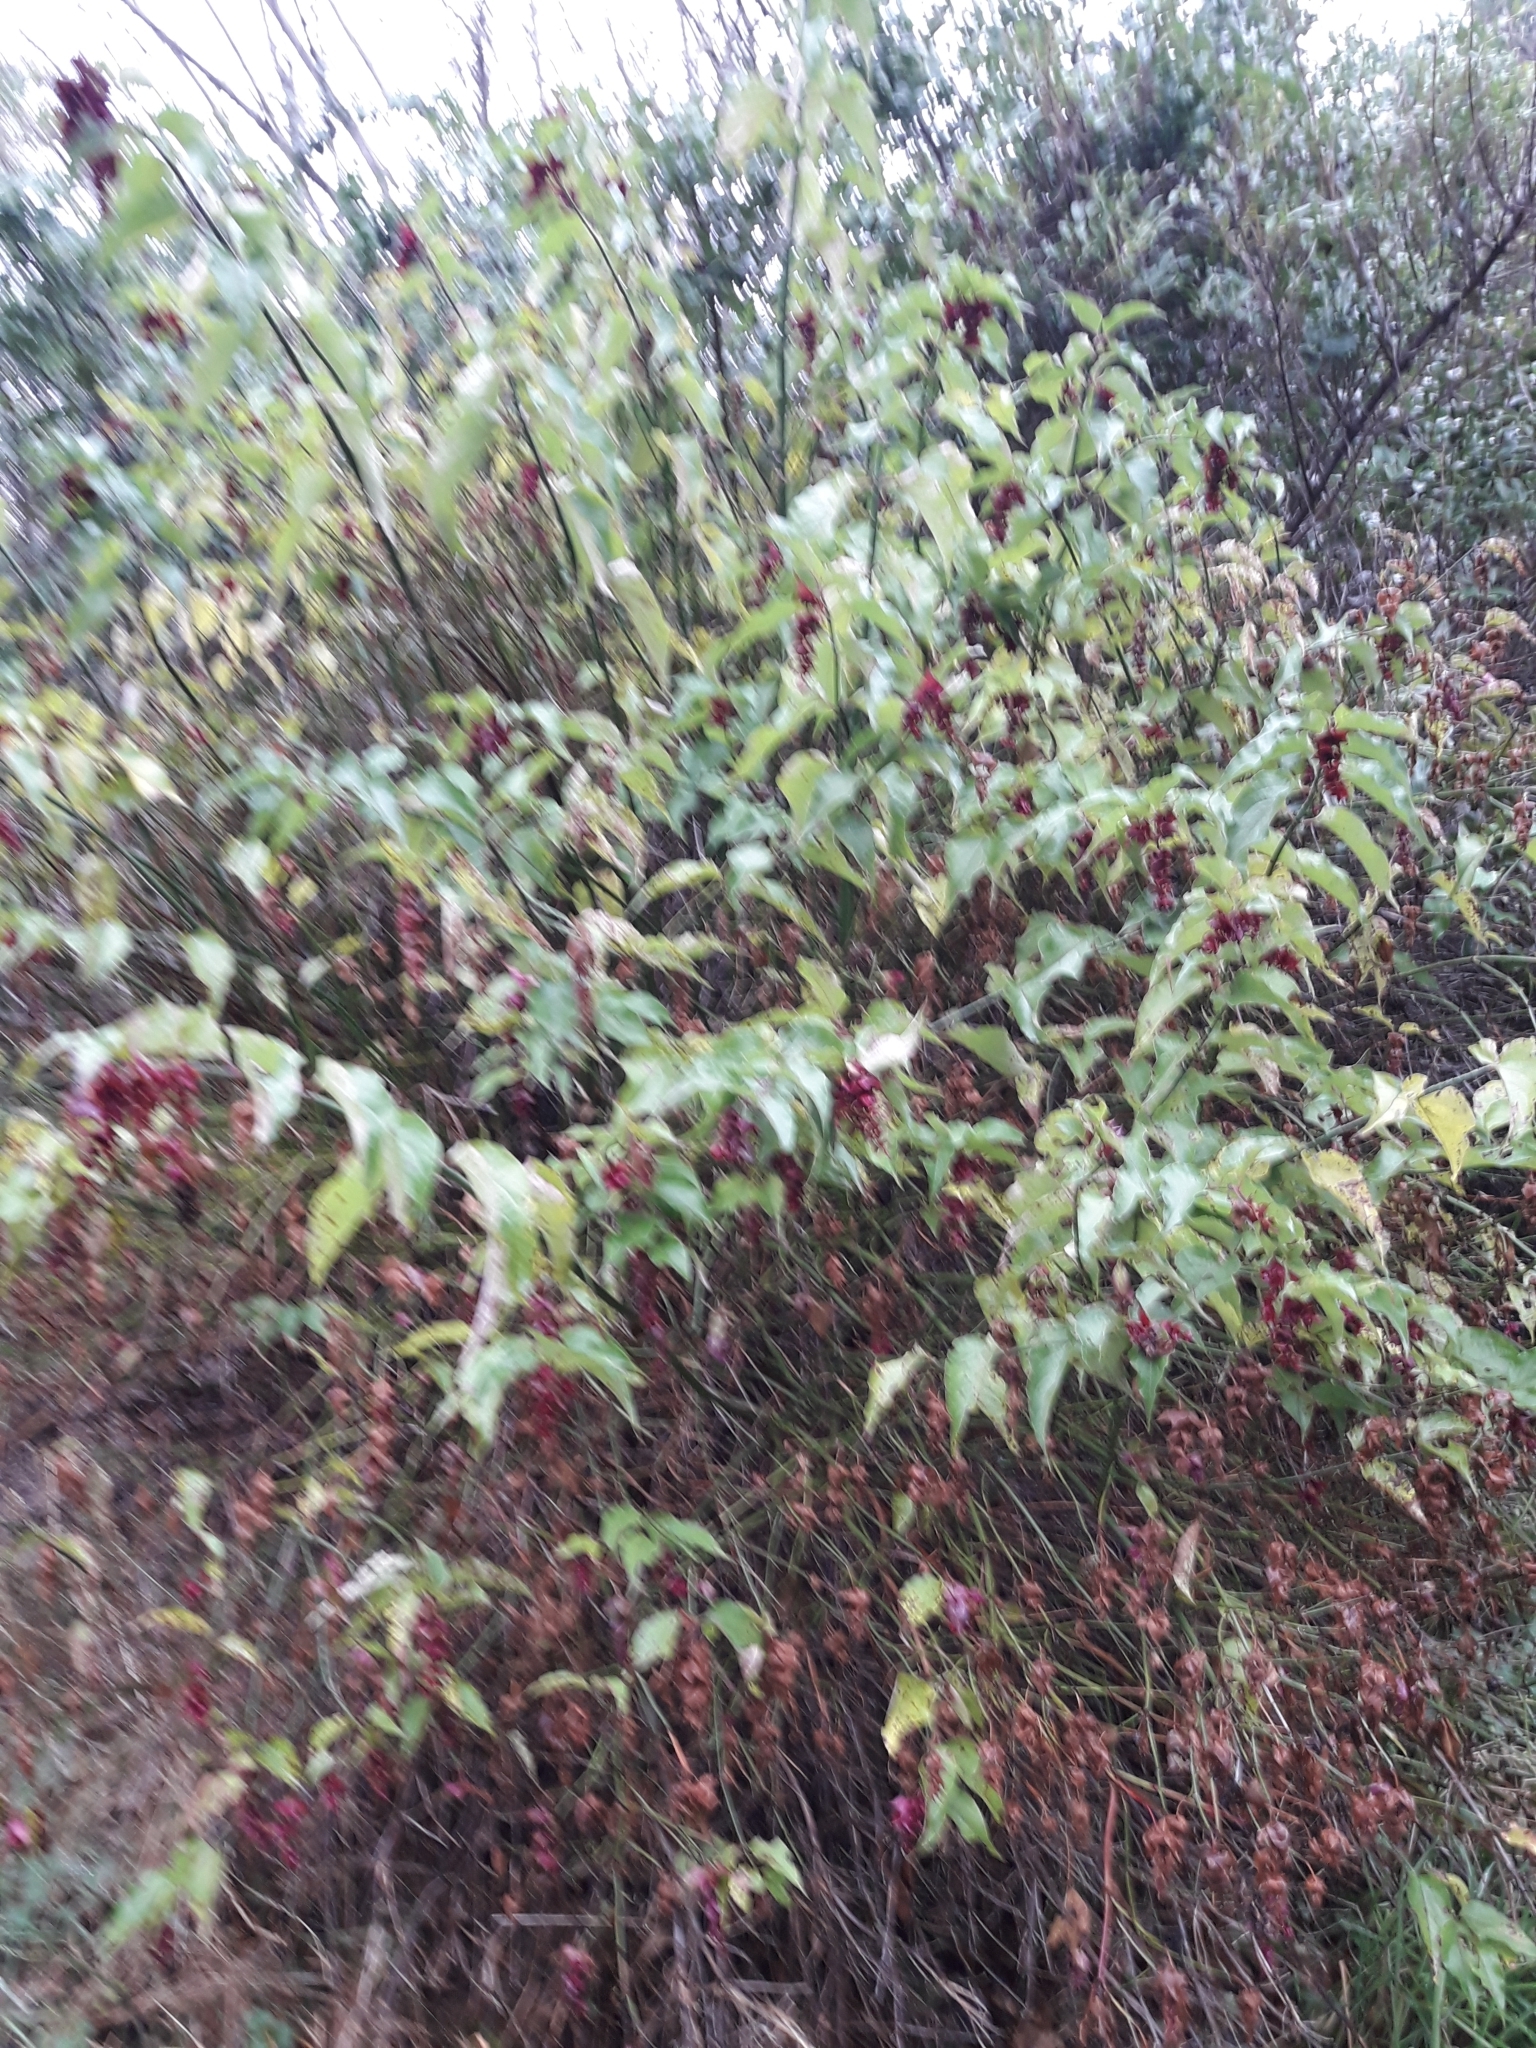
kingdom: Plantae
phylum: Tracheophyta
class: Magnoliopsida
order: Dipsacales
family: Caprifoliaceae
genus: Leycesteria
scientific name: Leycesteria formosa
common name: Himalayan honeysuckle
